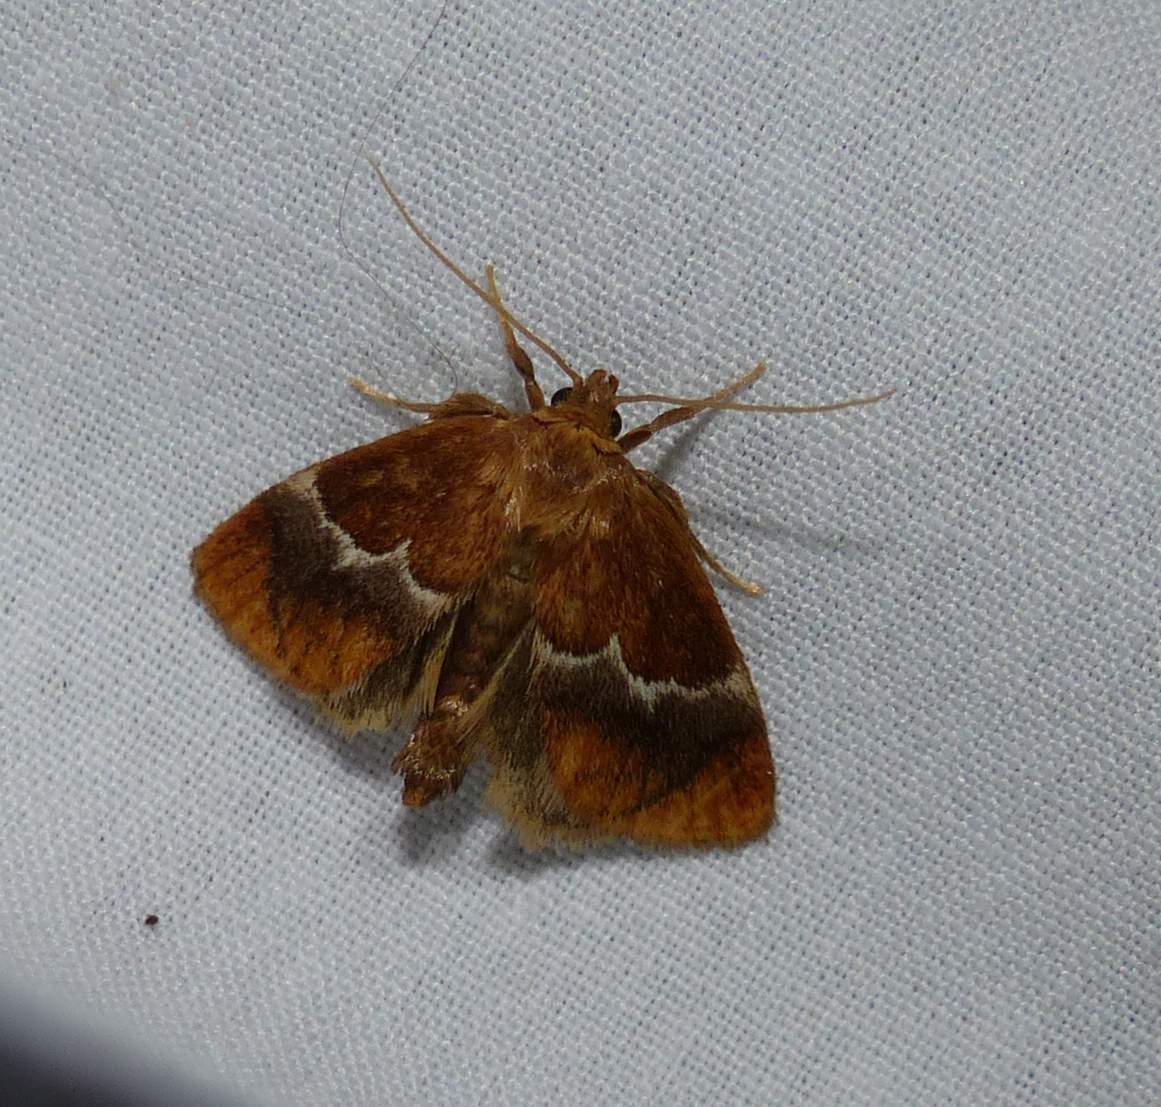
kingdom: Animalia
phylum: Arthropoda
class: Insecta
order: Lepidoptera
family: Limacodidae
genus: Lithacodes
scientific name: Lithacodes fasciola
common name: Yellow-shouldered slug moth
